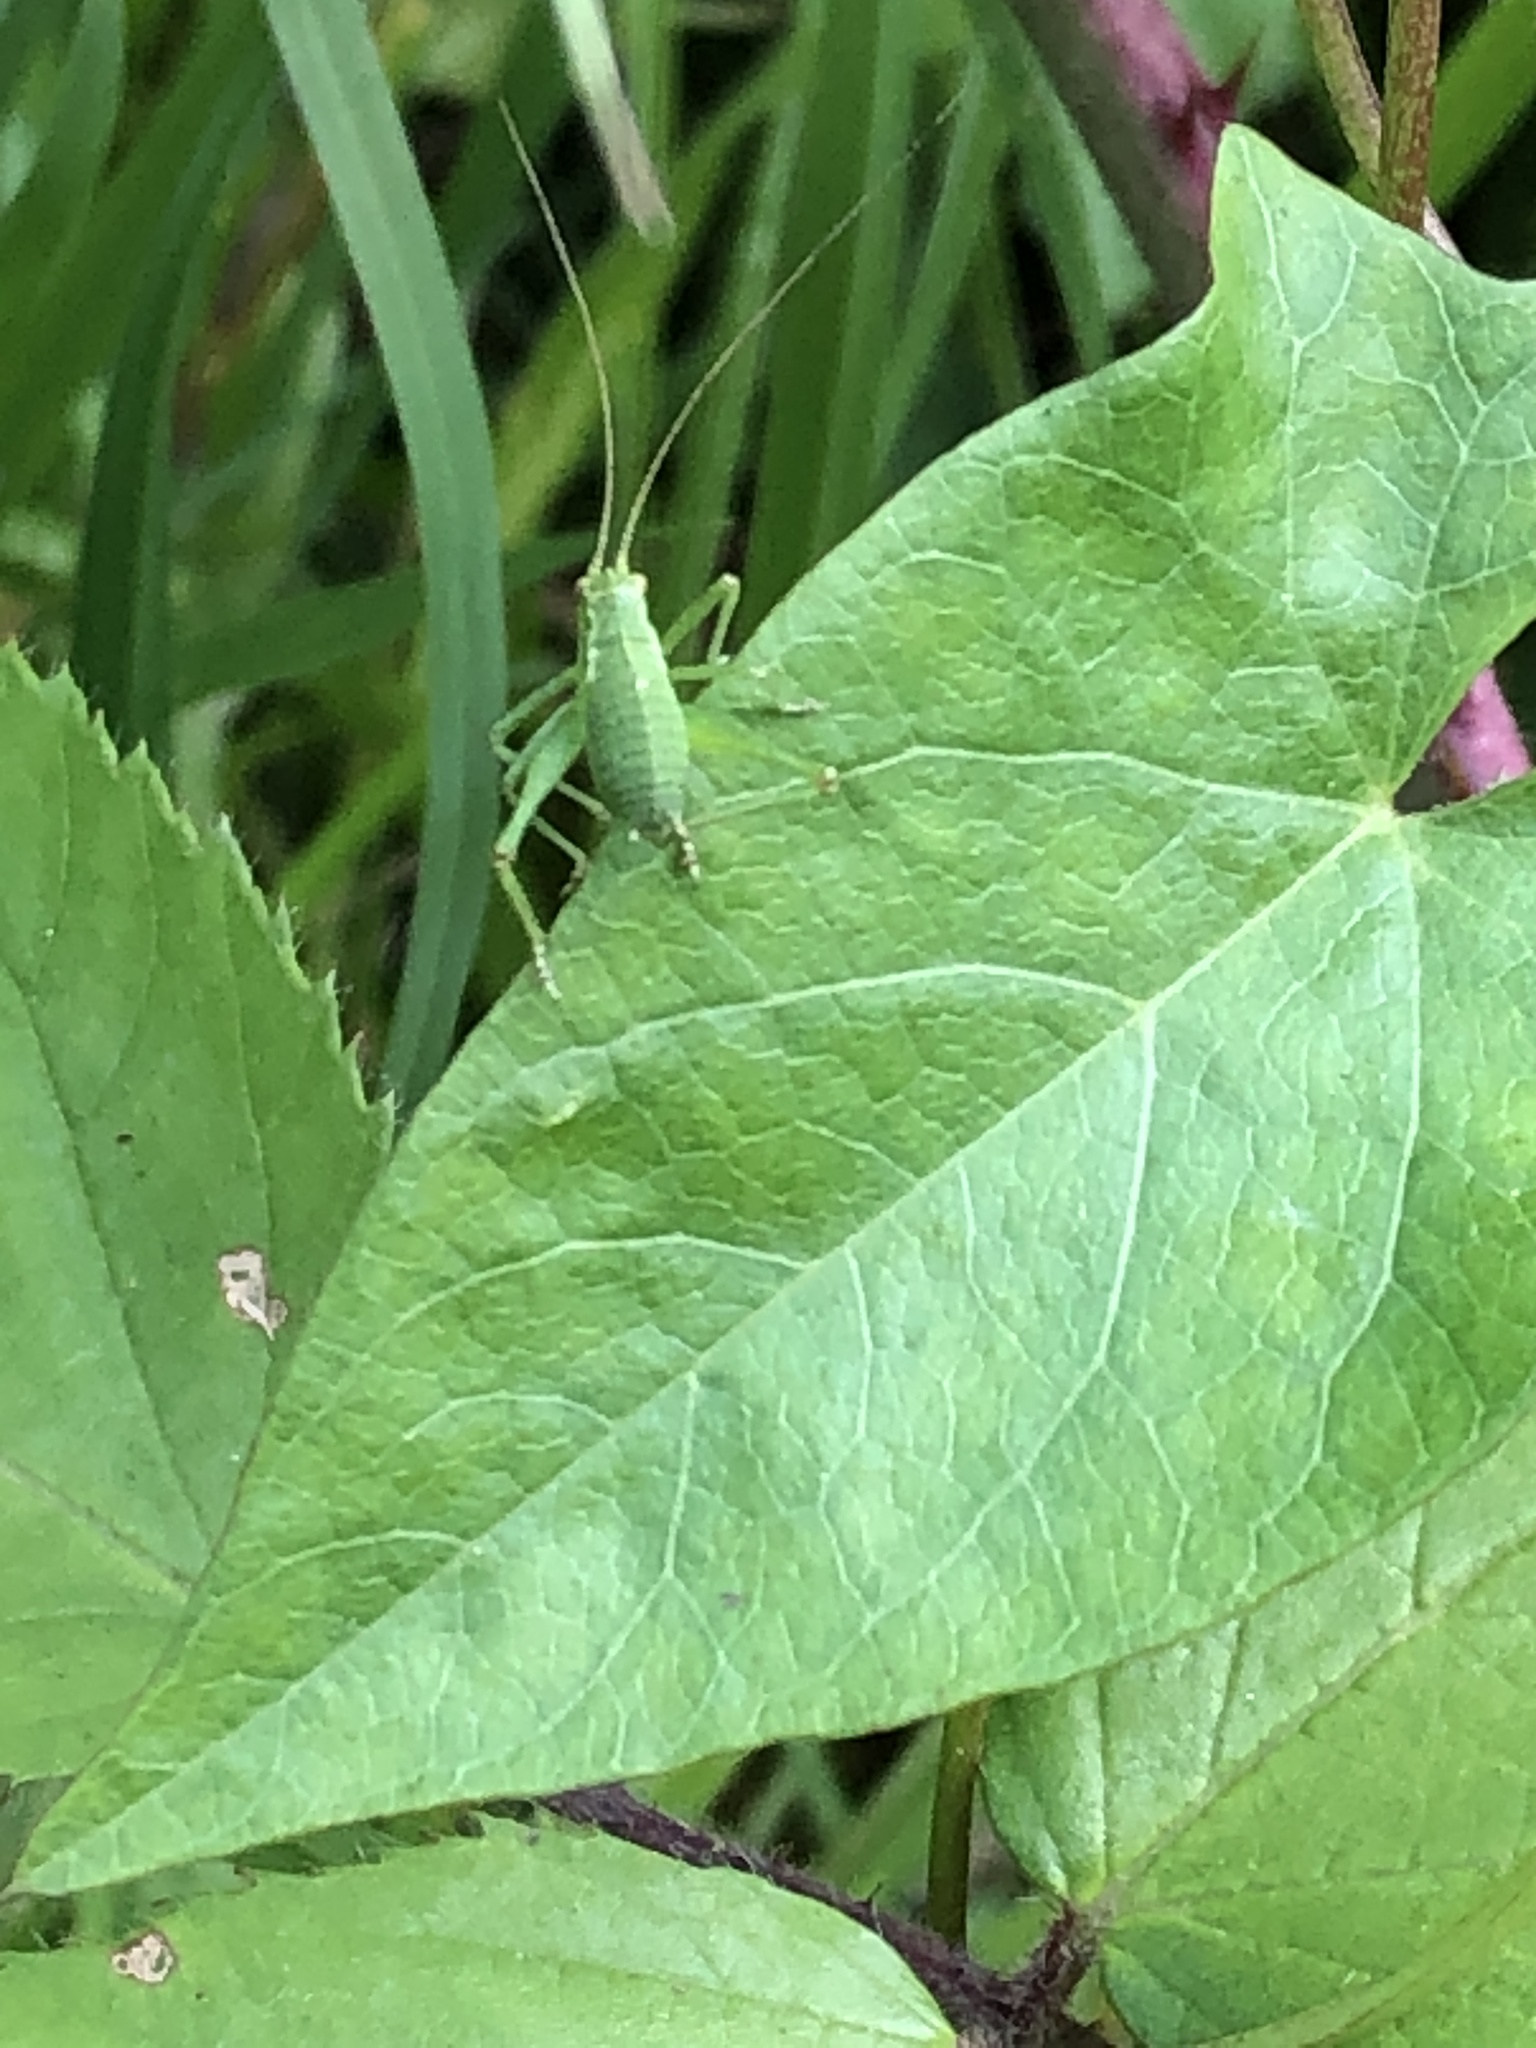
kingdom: Animalia
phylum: Arthropoda
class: Insecta
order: Orthoptera
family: Tettigoniidae
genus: Leptophyes
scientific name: Leptophyes punctatissima
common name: Speckled bush-cricket
